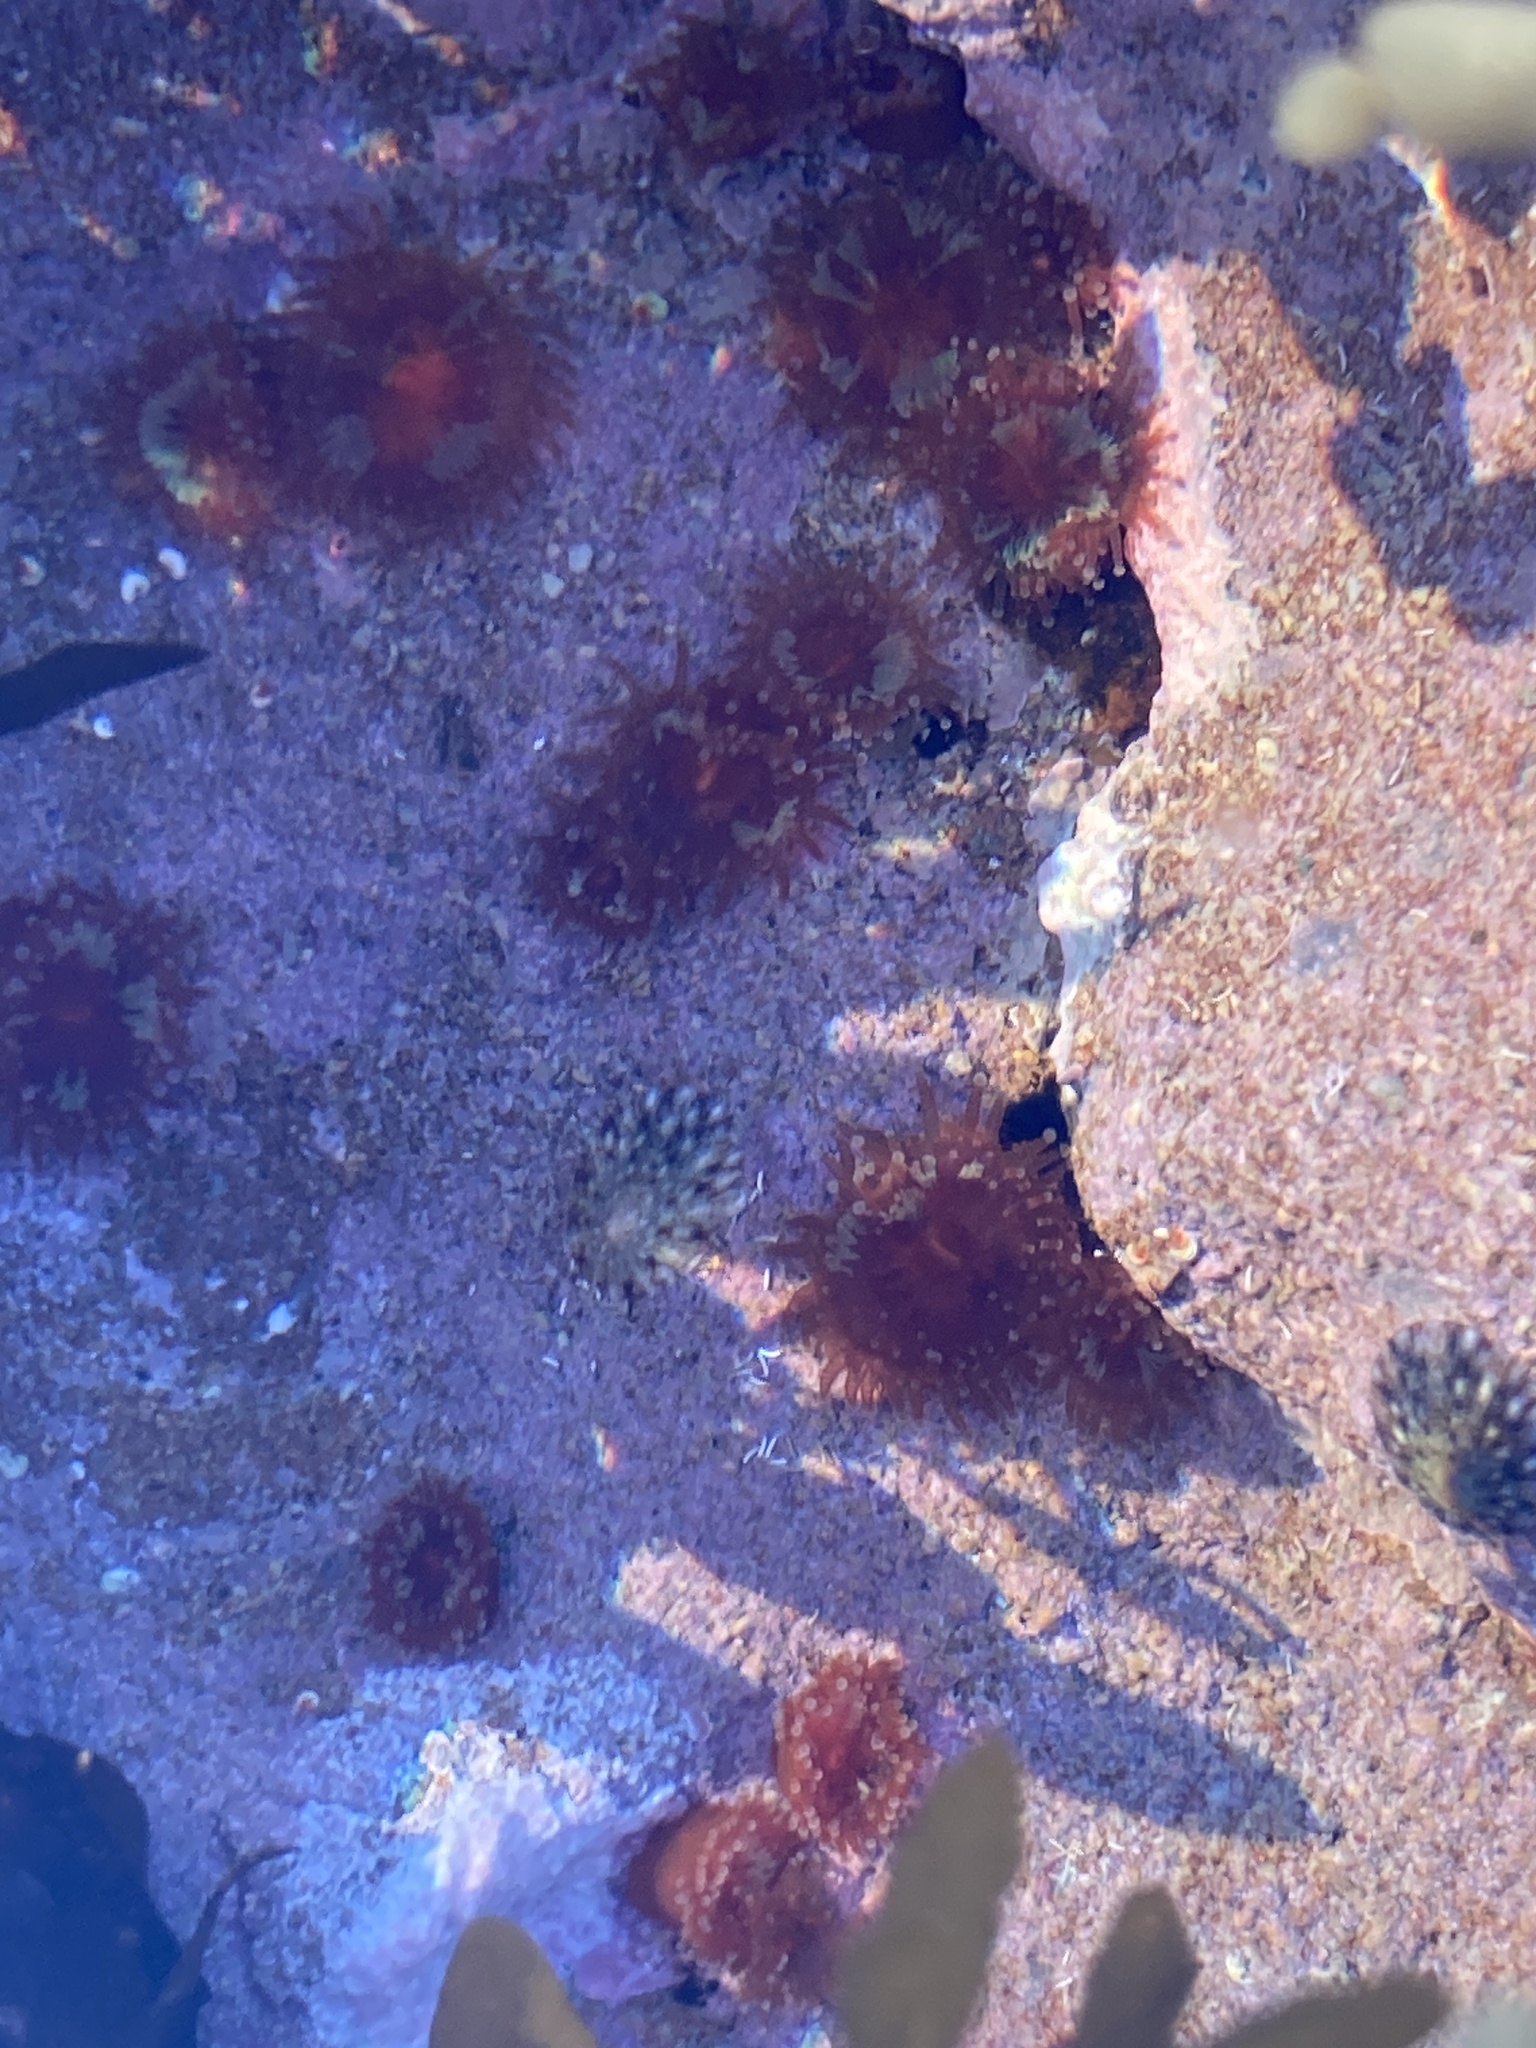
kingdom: Animalia
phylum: Cnidaria
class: Anthozoa
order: Corallimorpharia
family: Corallimorphidae
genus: Corynactis
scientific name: Corynactis australis
